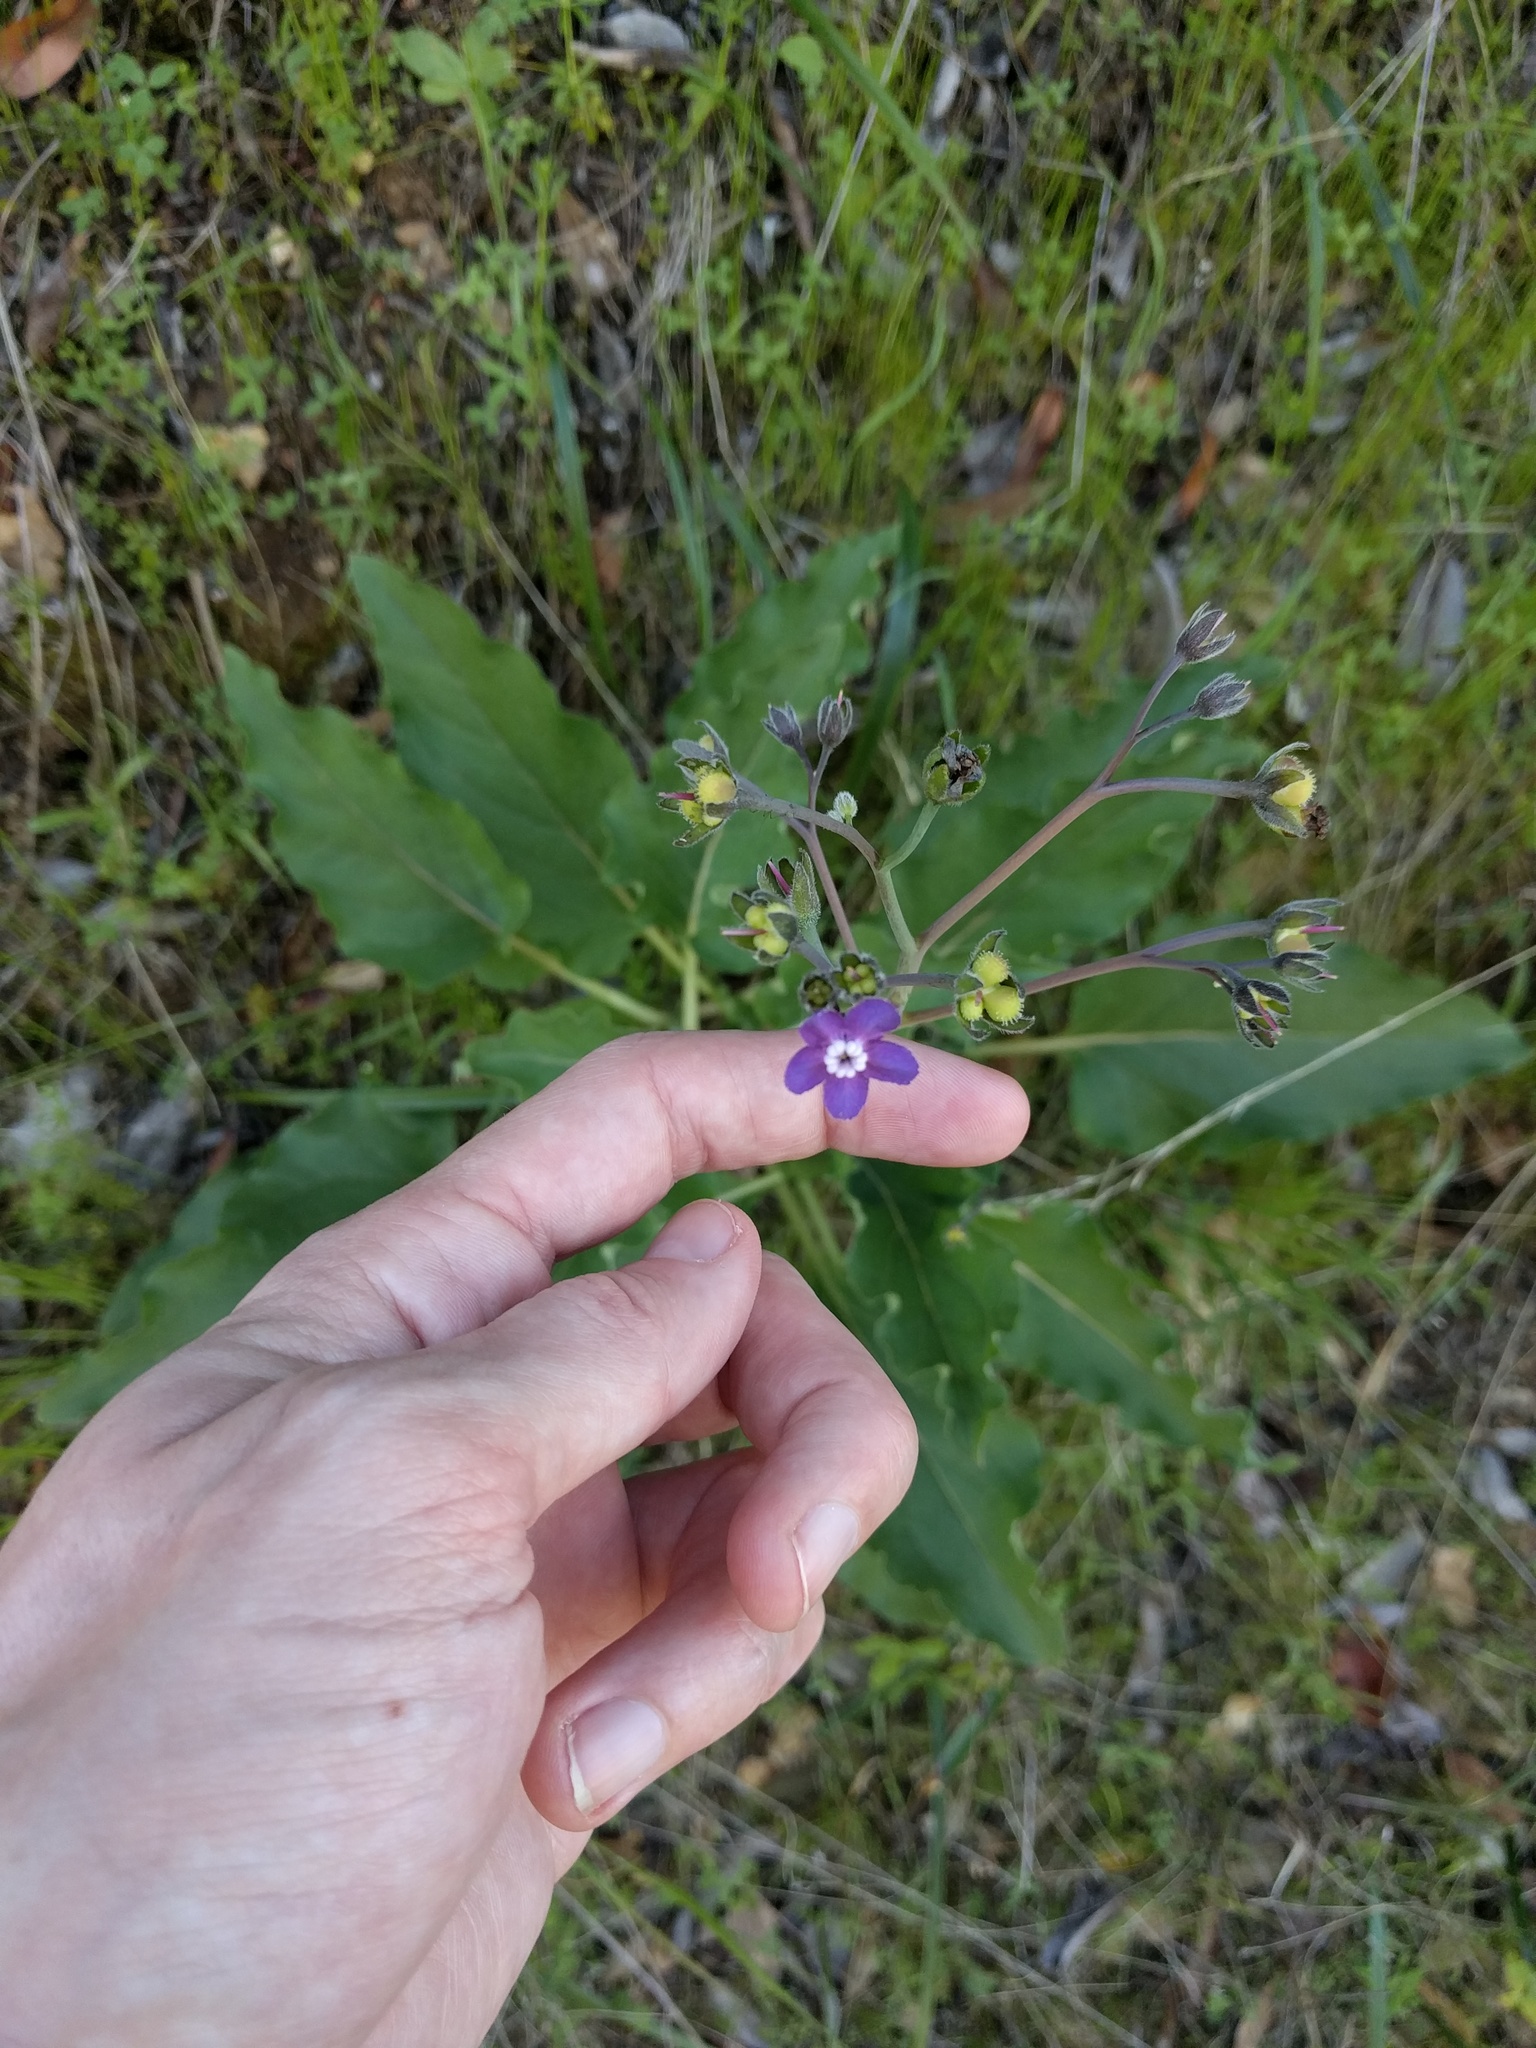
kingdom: Plantae
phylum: Tracheophyta
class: Magnoliopsida
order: Boraginales
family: Boraginaceae
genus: Adelinia
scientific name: Adelinia grande
